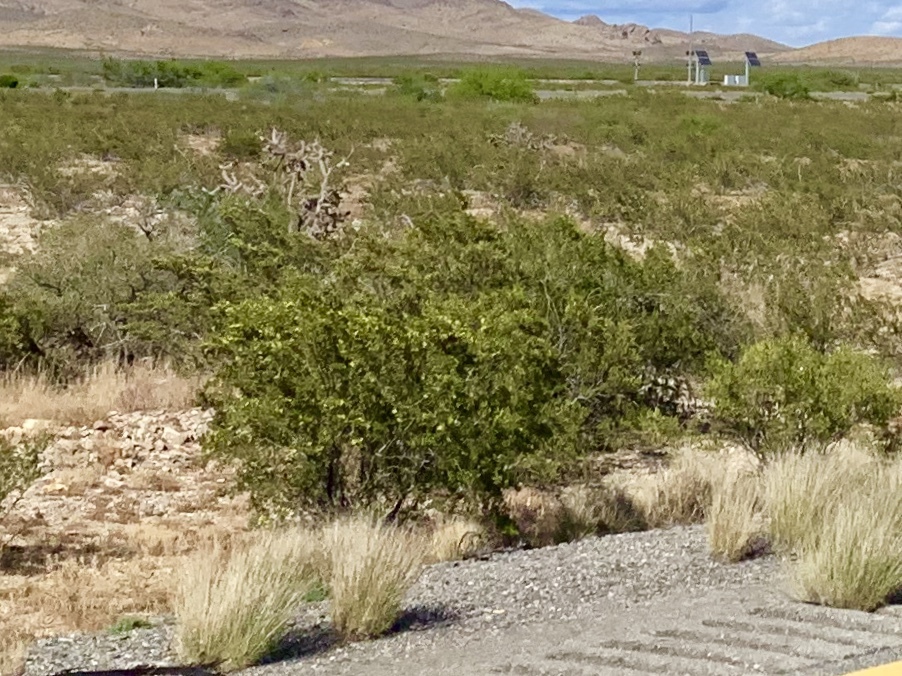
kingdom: Plantae
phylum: Tracheophyta
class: Magnoliopsida
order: Zygophyllales
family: Zygophyllaceae
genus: Larrea
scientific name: Larrea tridentata
